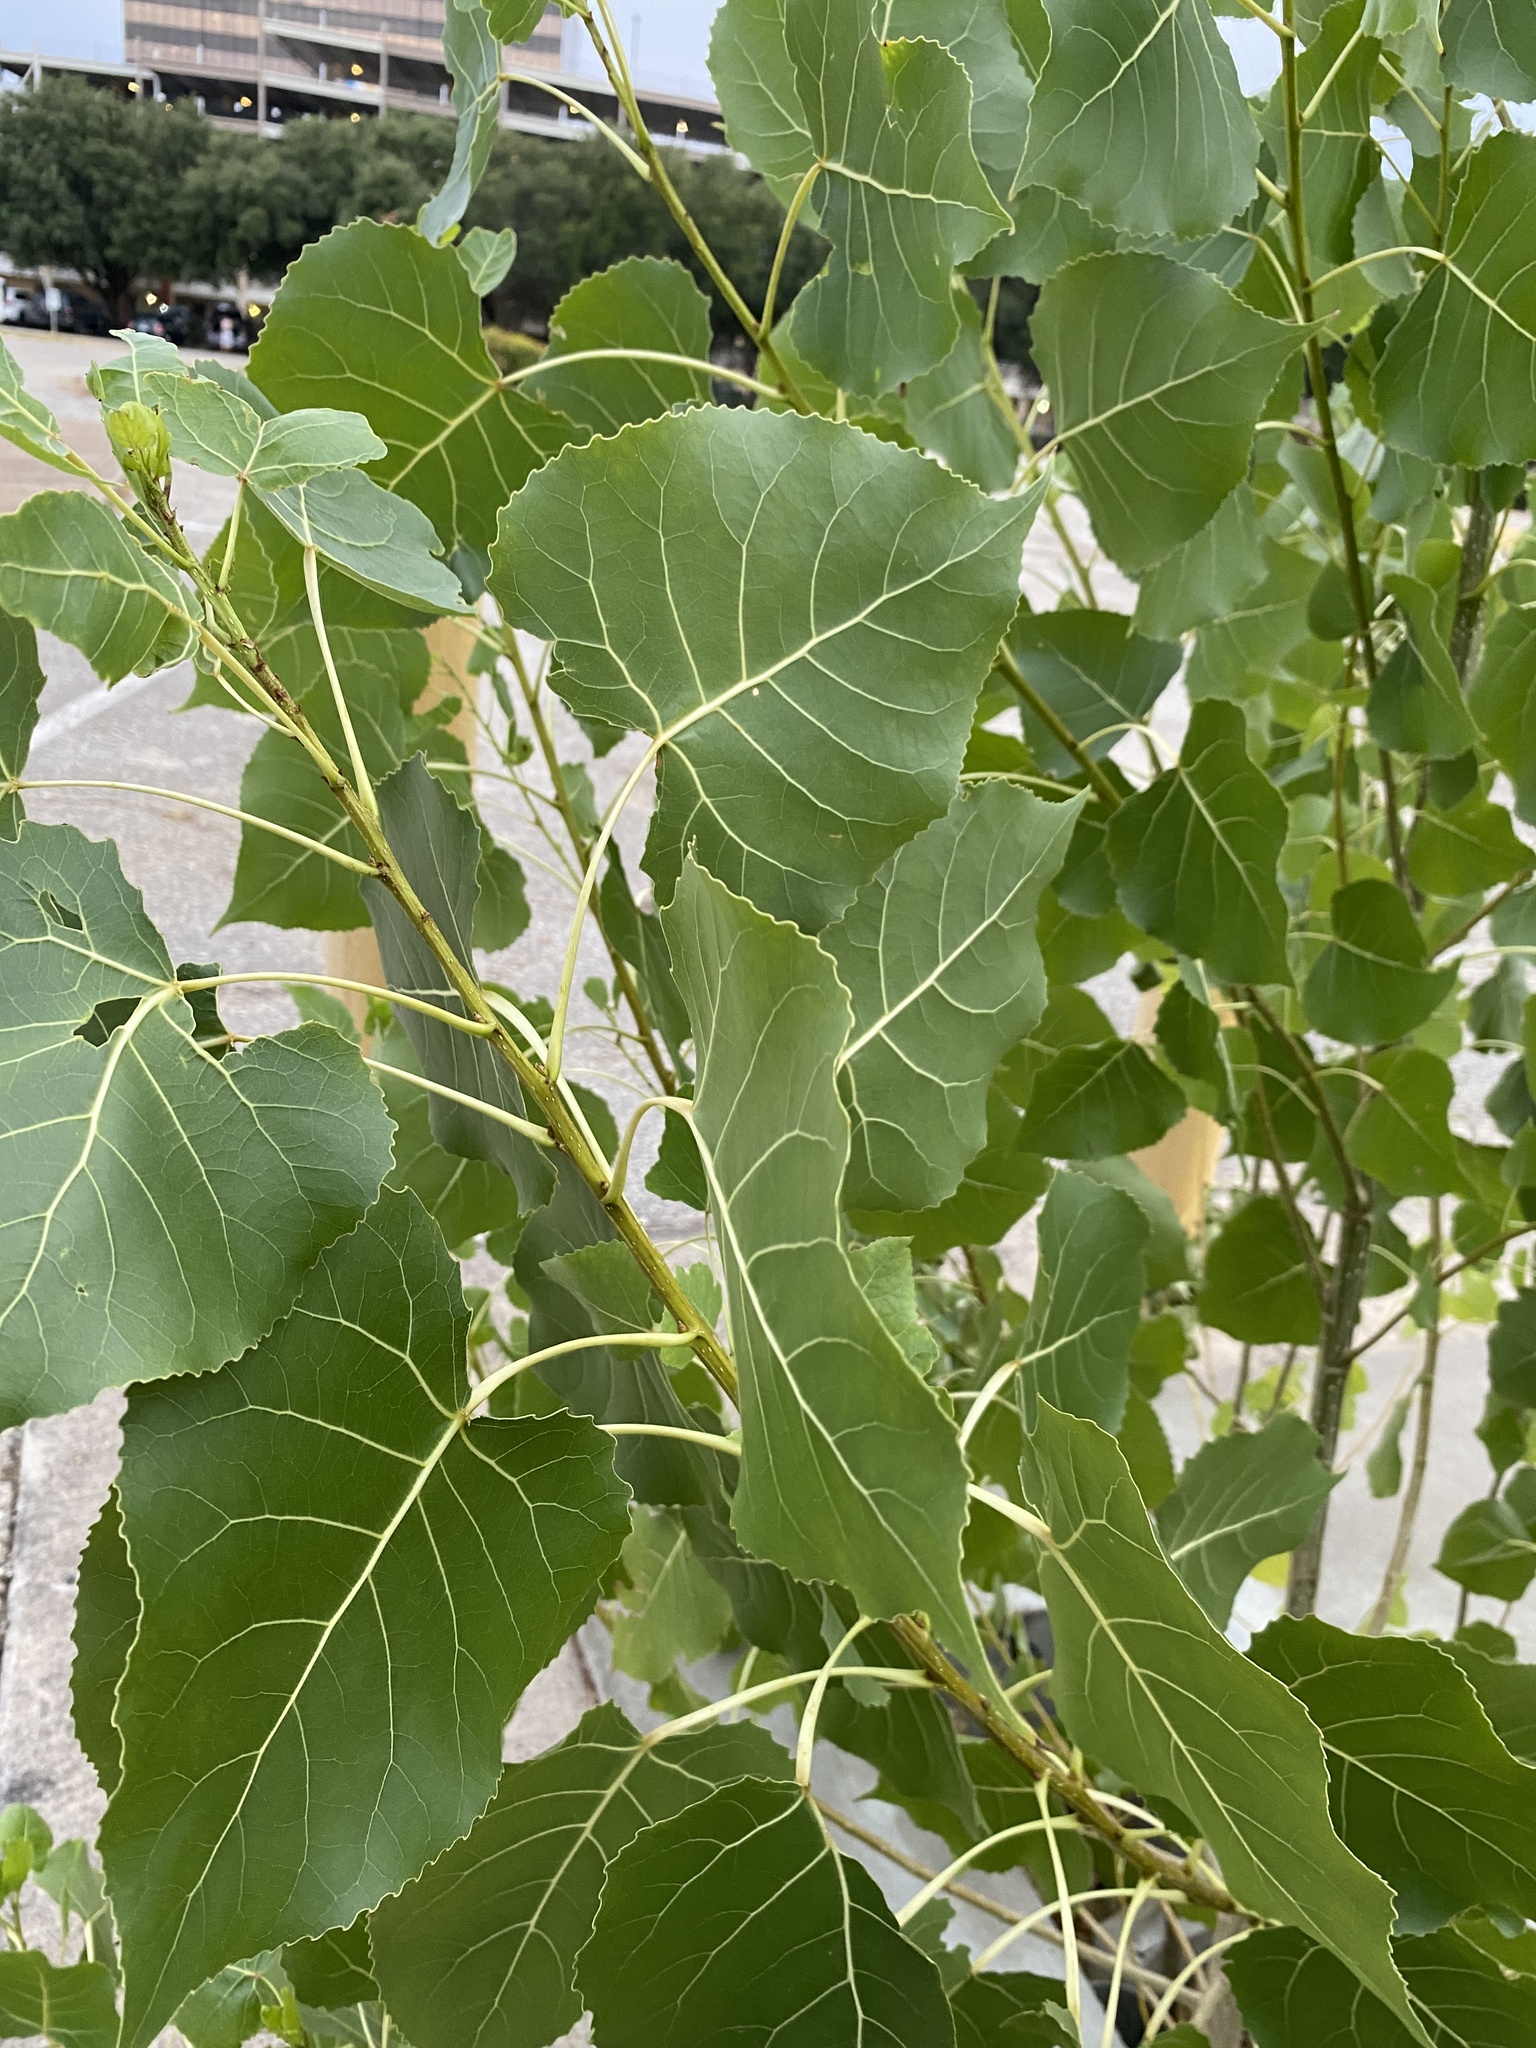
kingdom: Plantae
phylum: Tracheophyta
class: Magnoliopsida
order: Malpighiales
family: Salicaceae
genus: Populus
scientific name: Populus deltoides
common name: Eastern cottonwood
